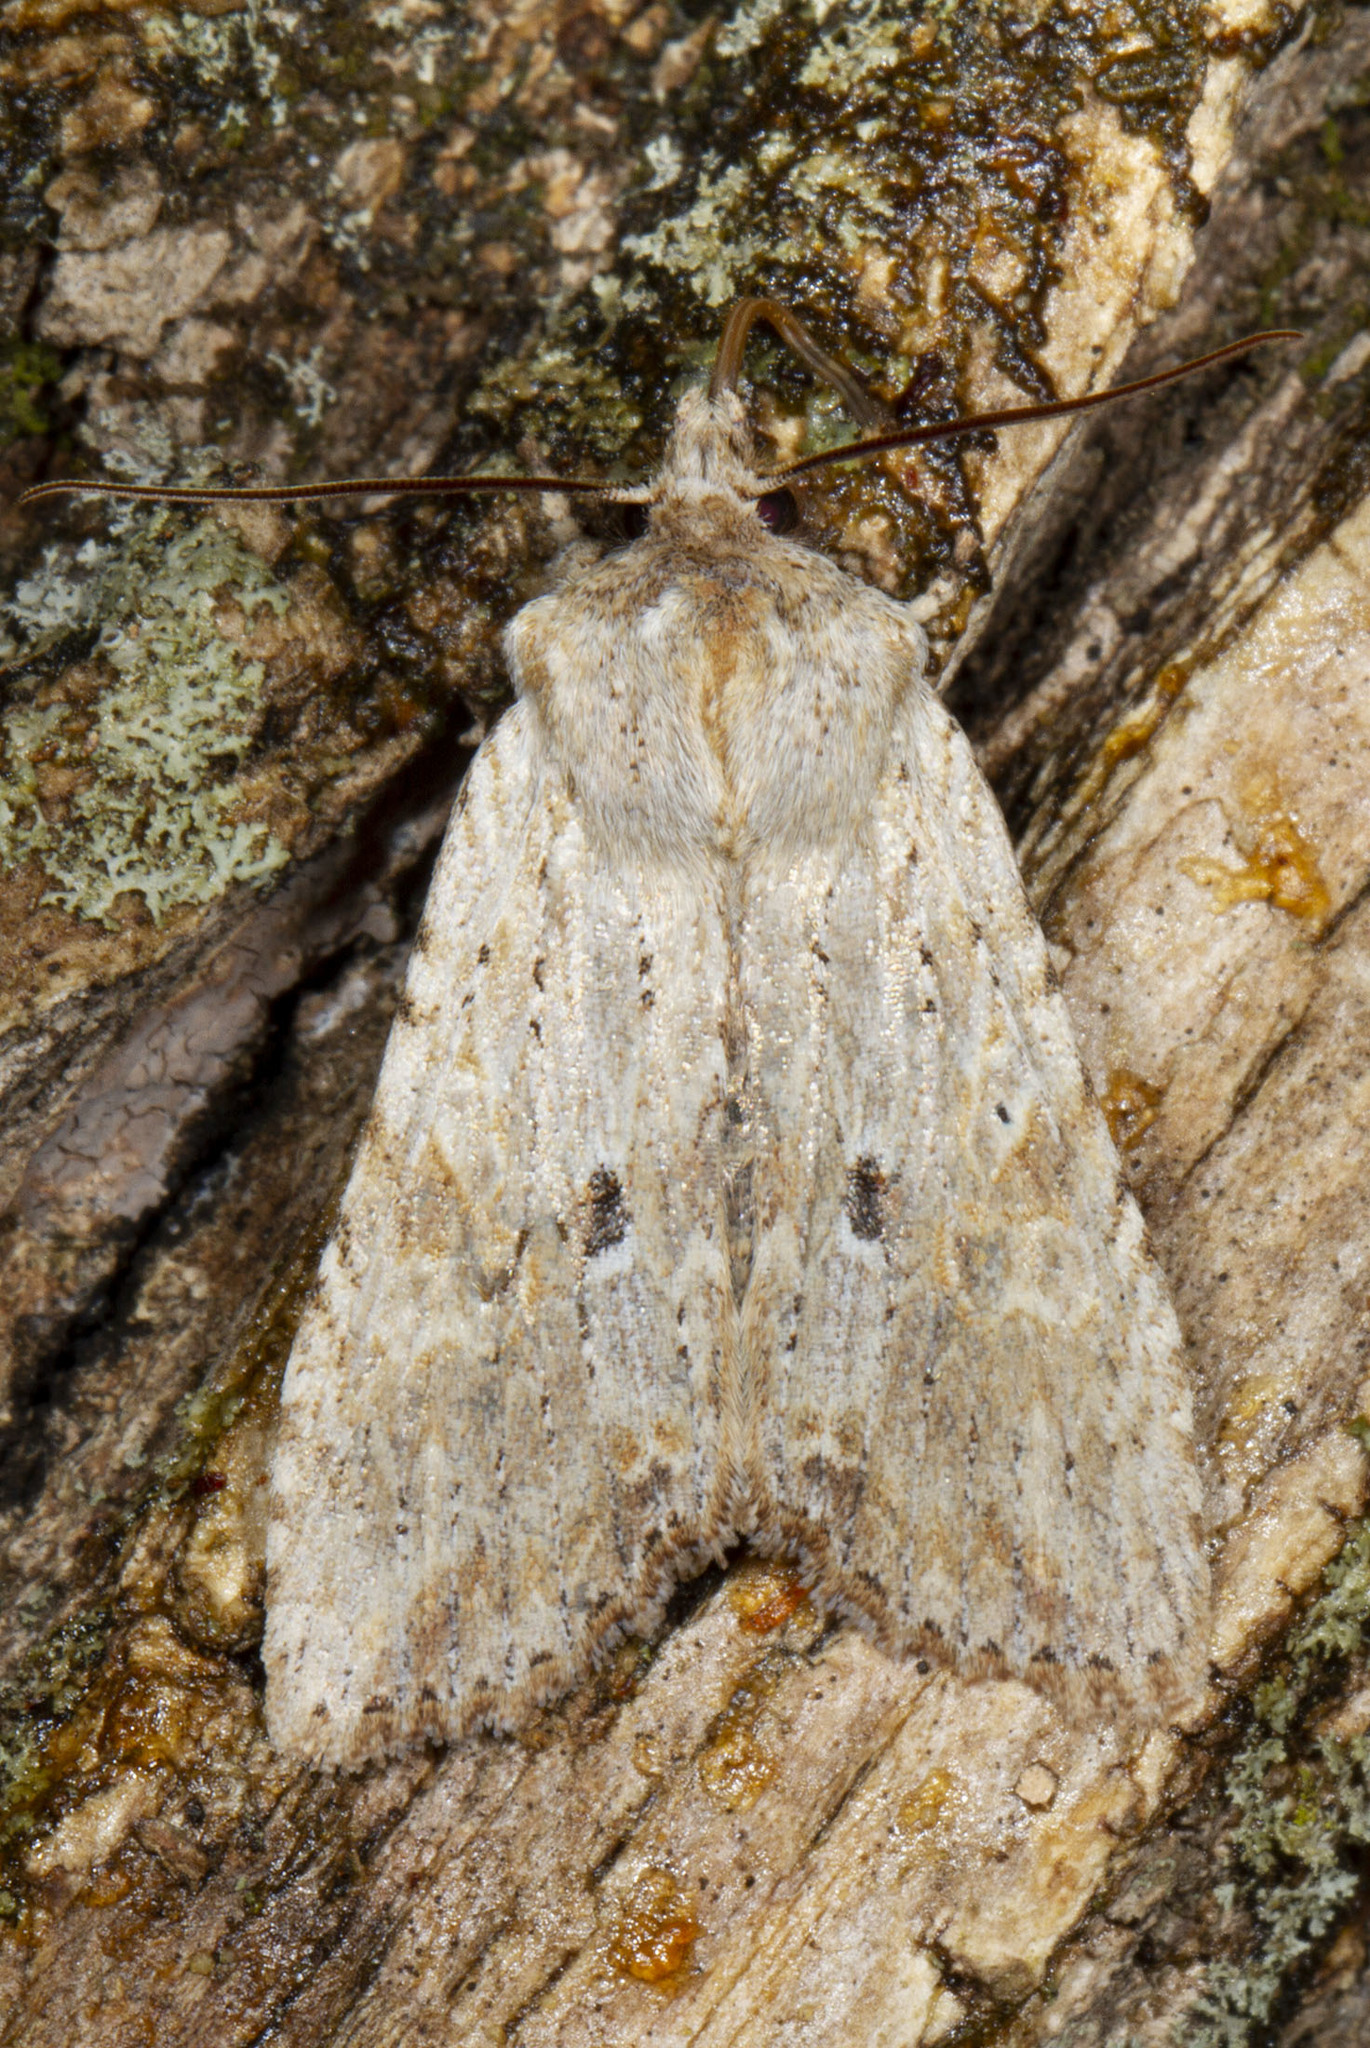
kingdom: Animalia
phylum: Arthropoda
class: Insecta
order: Lepidoptera
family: Noctuidae
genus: Lithophane
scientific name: Lithophane patefacta
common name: Dimorphic pinion moth
